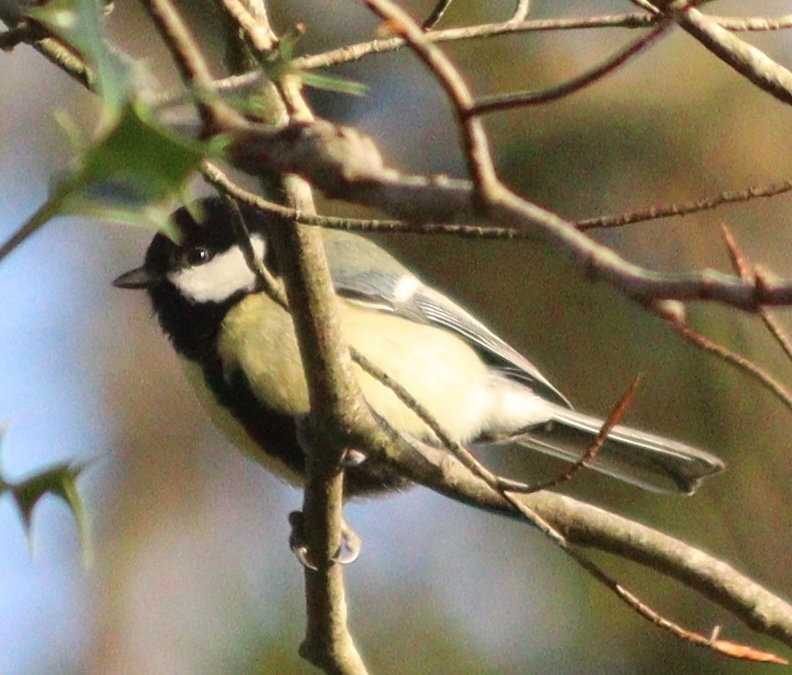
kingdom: Animalia
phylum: Chordata
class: Aves
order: Passeriformes
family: Paridae
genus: Parus
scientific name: Parus major
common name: Great tit
